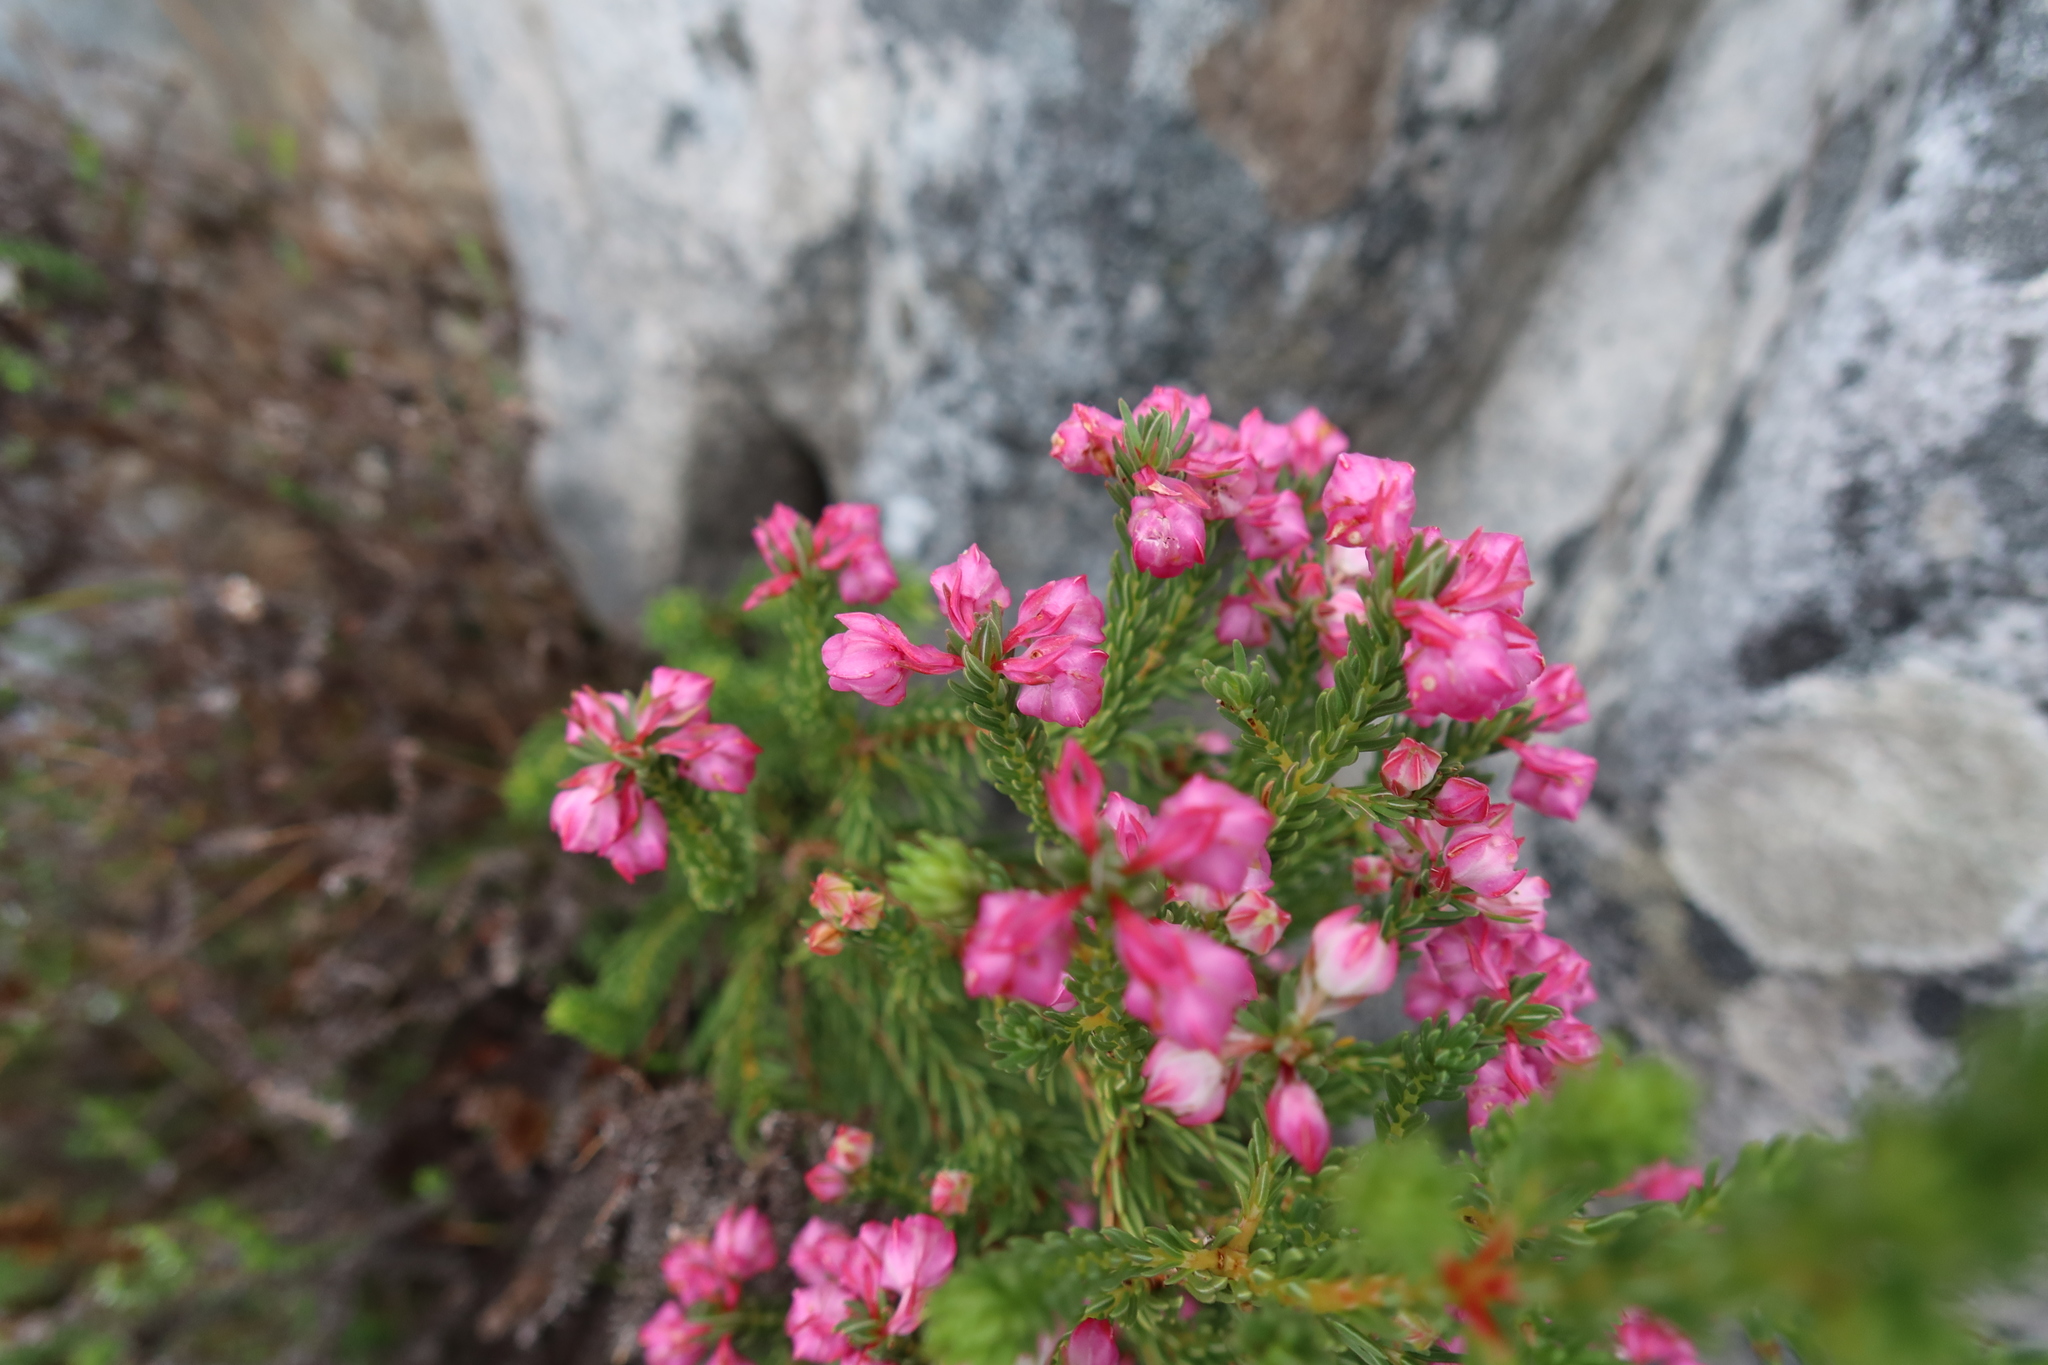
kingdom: Plantae
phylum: Tracheophyta
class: Magnoliopsida
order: Ericales
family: Ericaceae
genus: Erica
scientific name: Erica baccans
